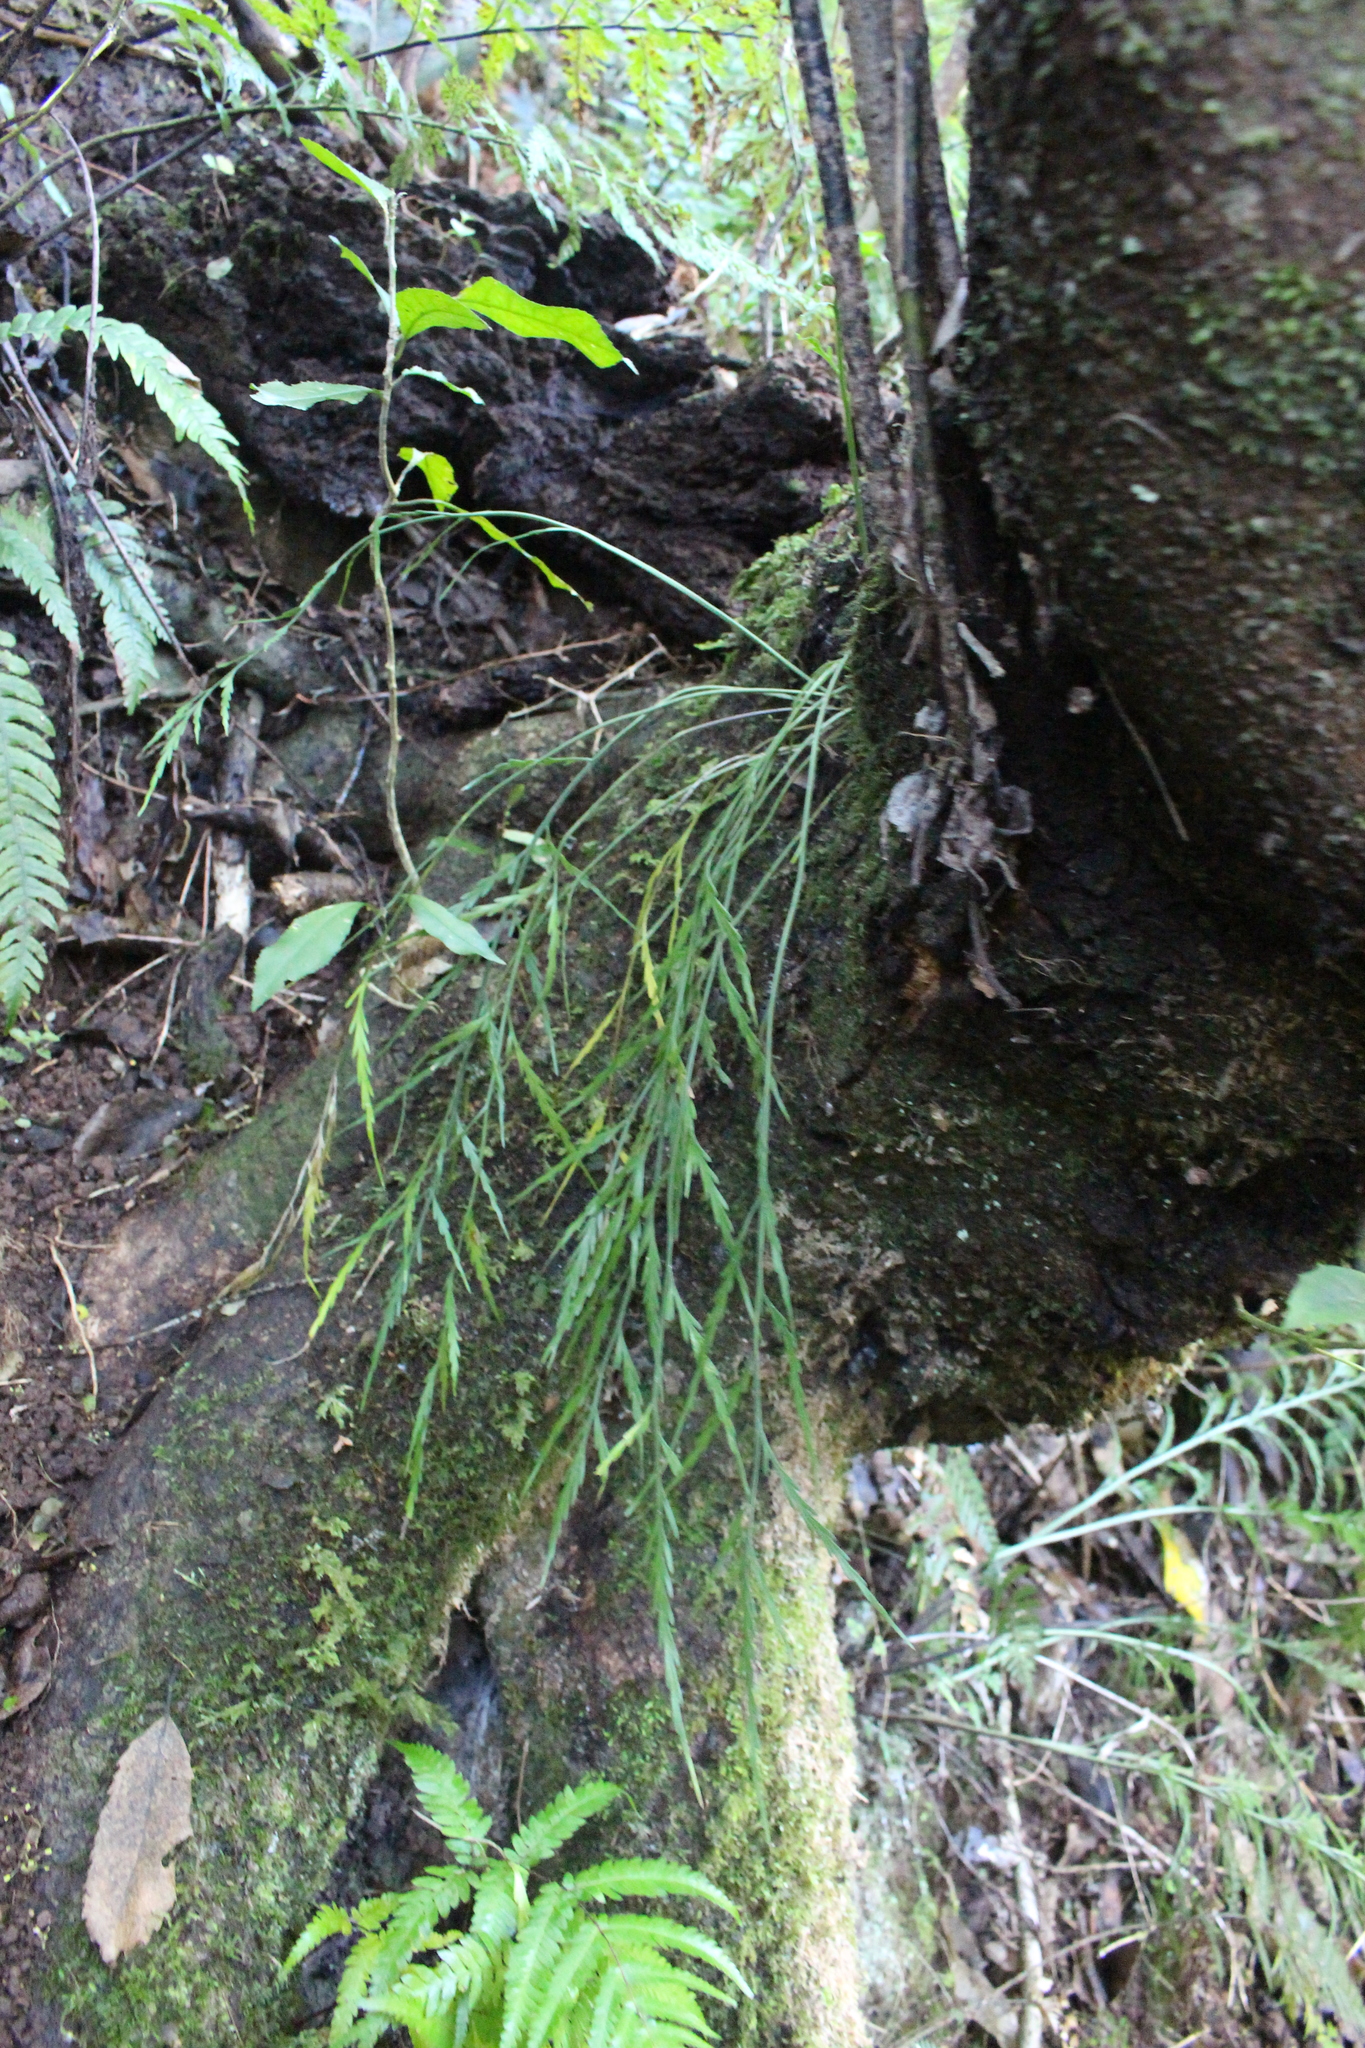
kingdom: Plantae
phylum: Tracheophyta
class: Polypodiopsida
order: Polypodiales
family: Aspleniaceae
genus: Asplenium
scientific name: Asplenium flaccidum
